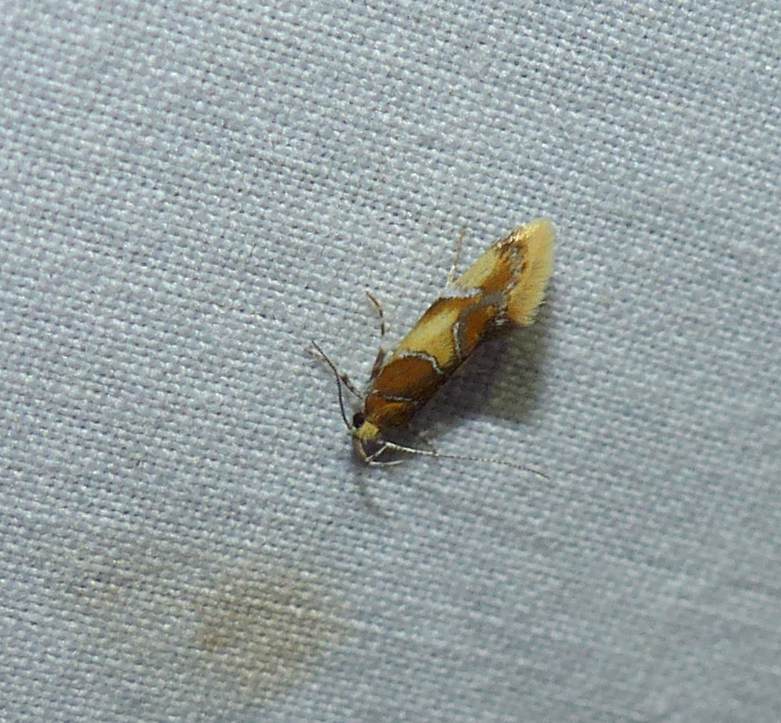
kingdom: Animalia
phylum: Arthropoda
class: Insecta
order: Lepidoptera
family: Oecophoridae
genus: Callima
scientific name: Callima argenticinctella
